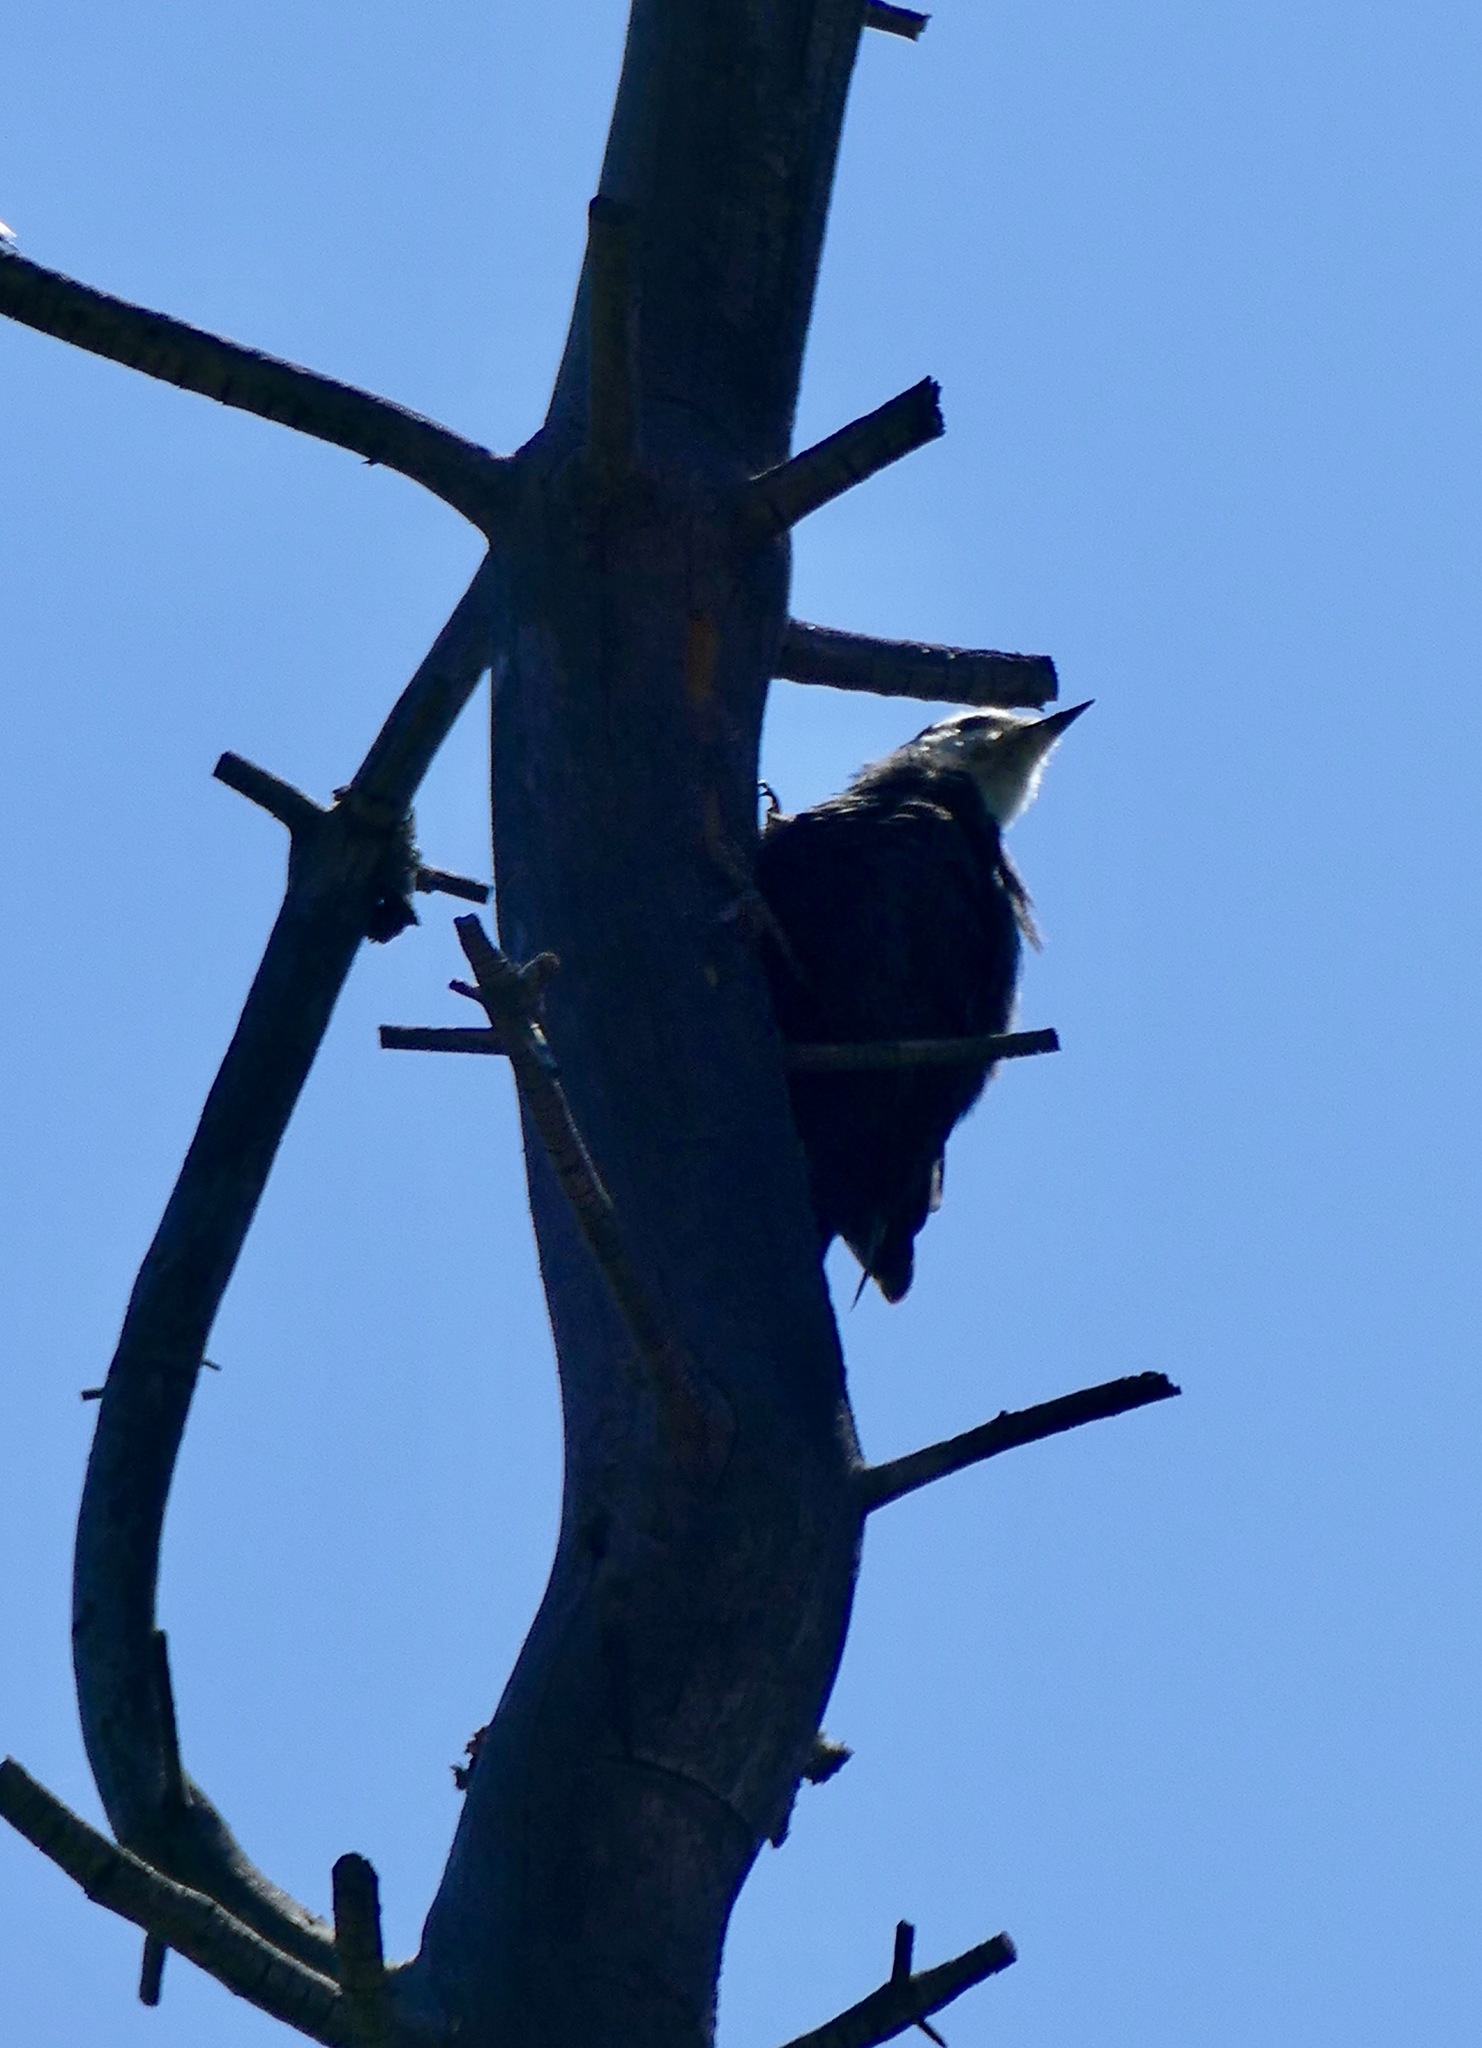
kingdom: Animalia
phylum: Chordata
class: Aves
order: Piciformes
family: Picidae
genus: Leuconotopicus
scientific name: Leuconotopicus albolarvatus
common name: White-headed woodpecker
